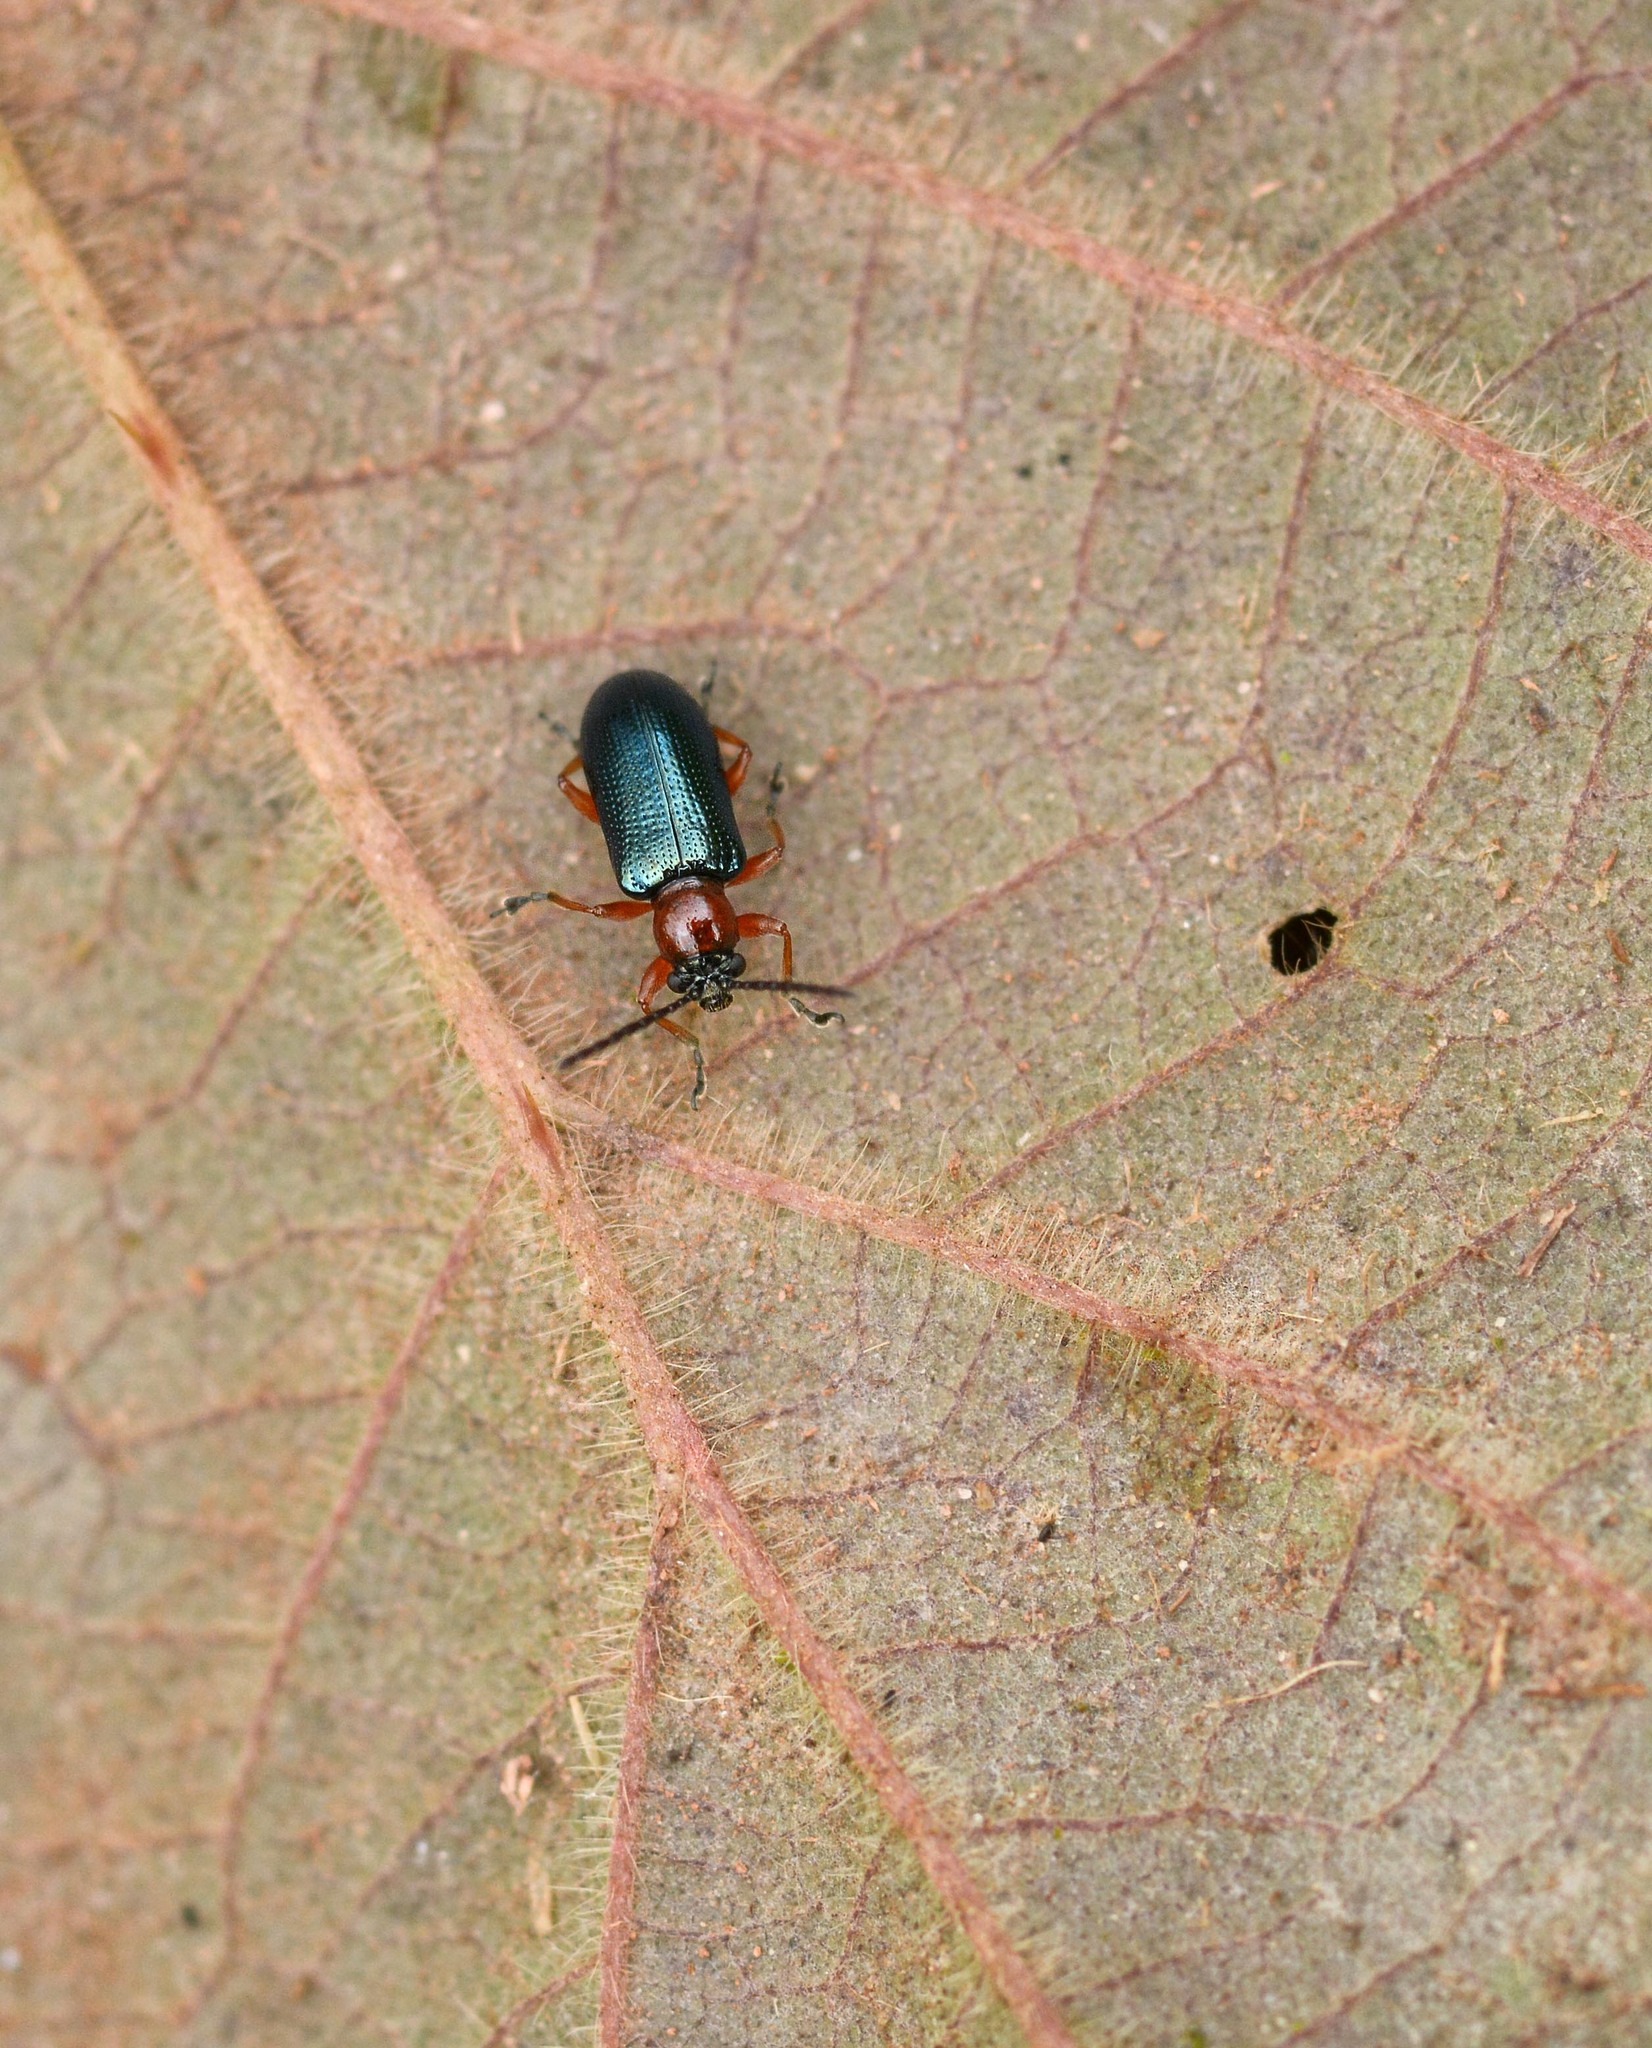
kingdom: Animalia
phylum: Arthropoda
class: Insecta
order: Coleoptera
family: Chrysomelidae
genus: Oulema
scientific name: Oulema
